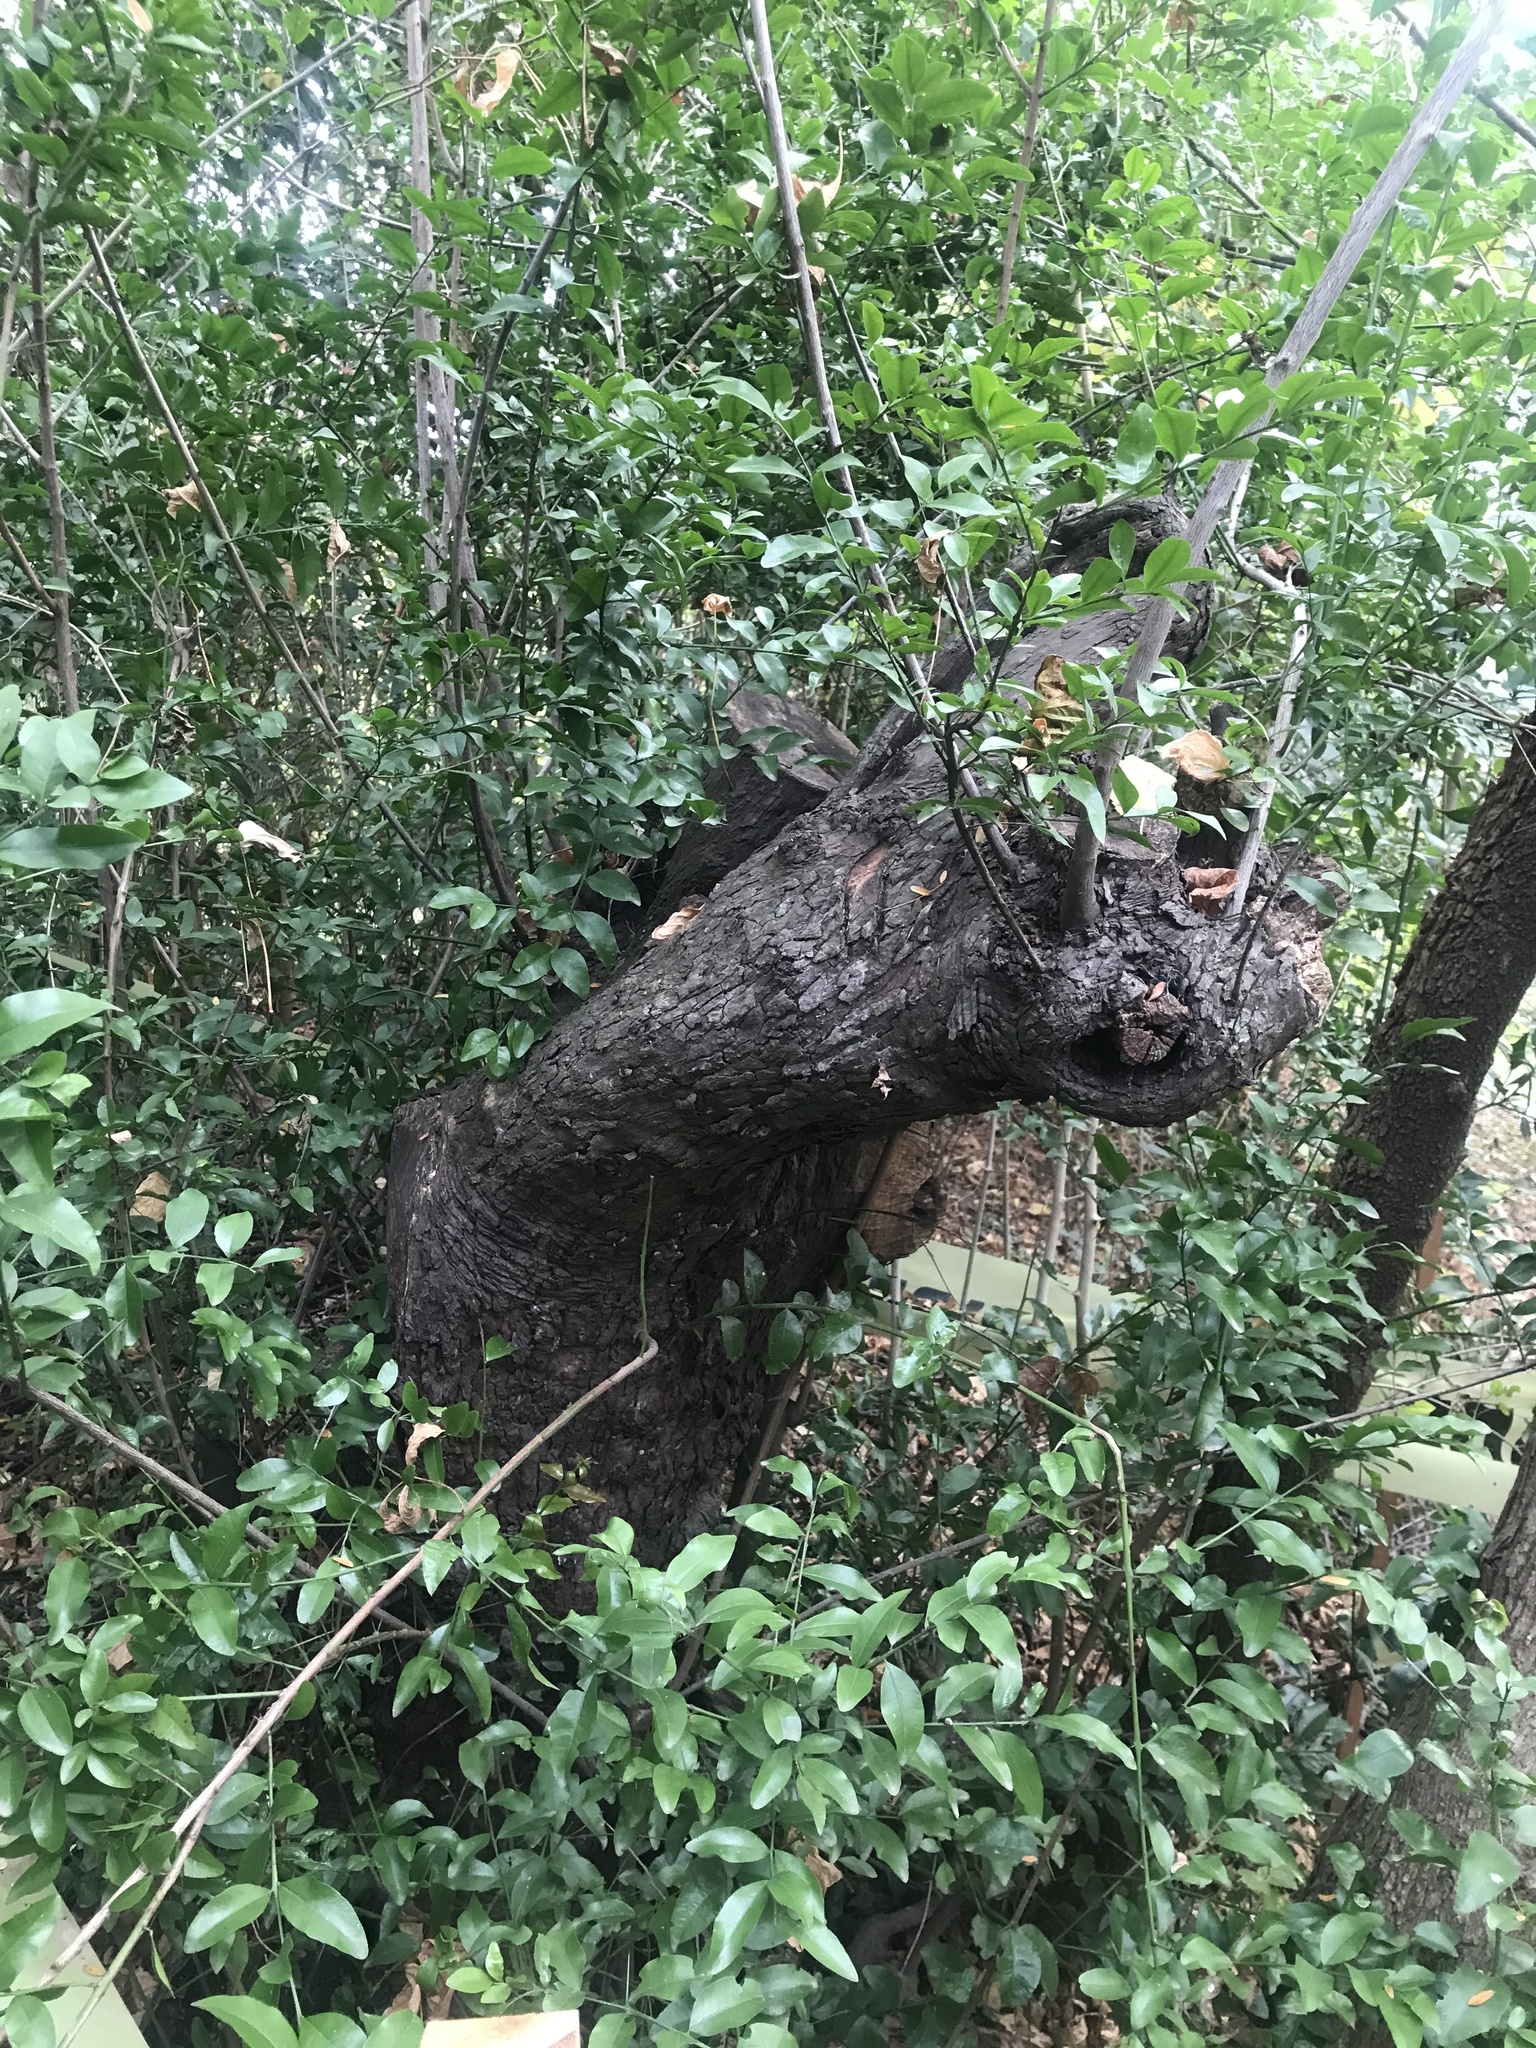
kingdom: Plantae
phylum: Tracheophyta
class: Magnoliopsida
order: Rosales
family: Rhamnaceae
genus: Scutia
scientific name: Scutia buxifolia
